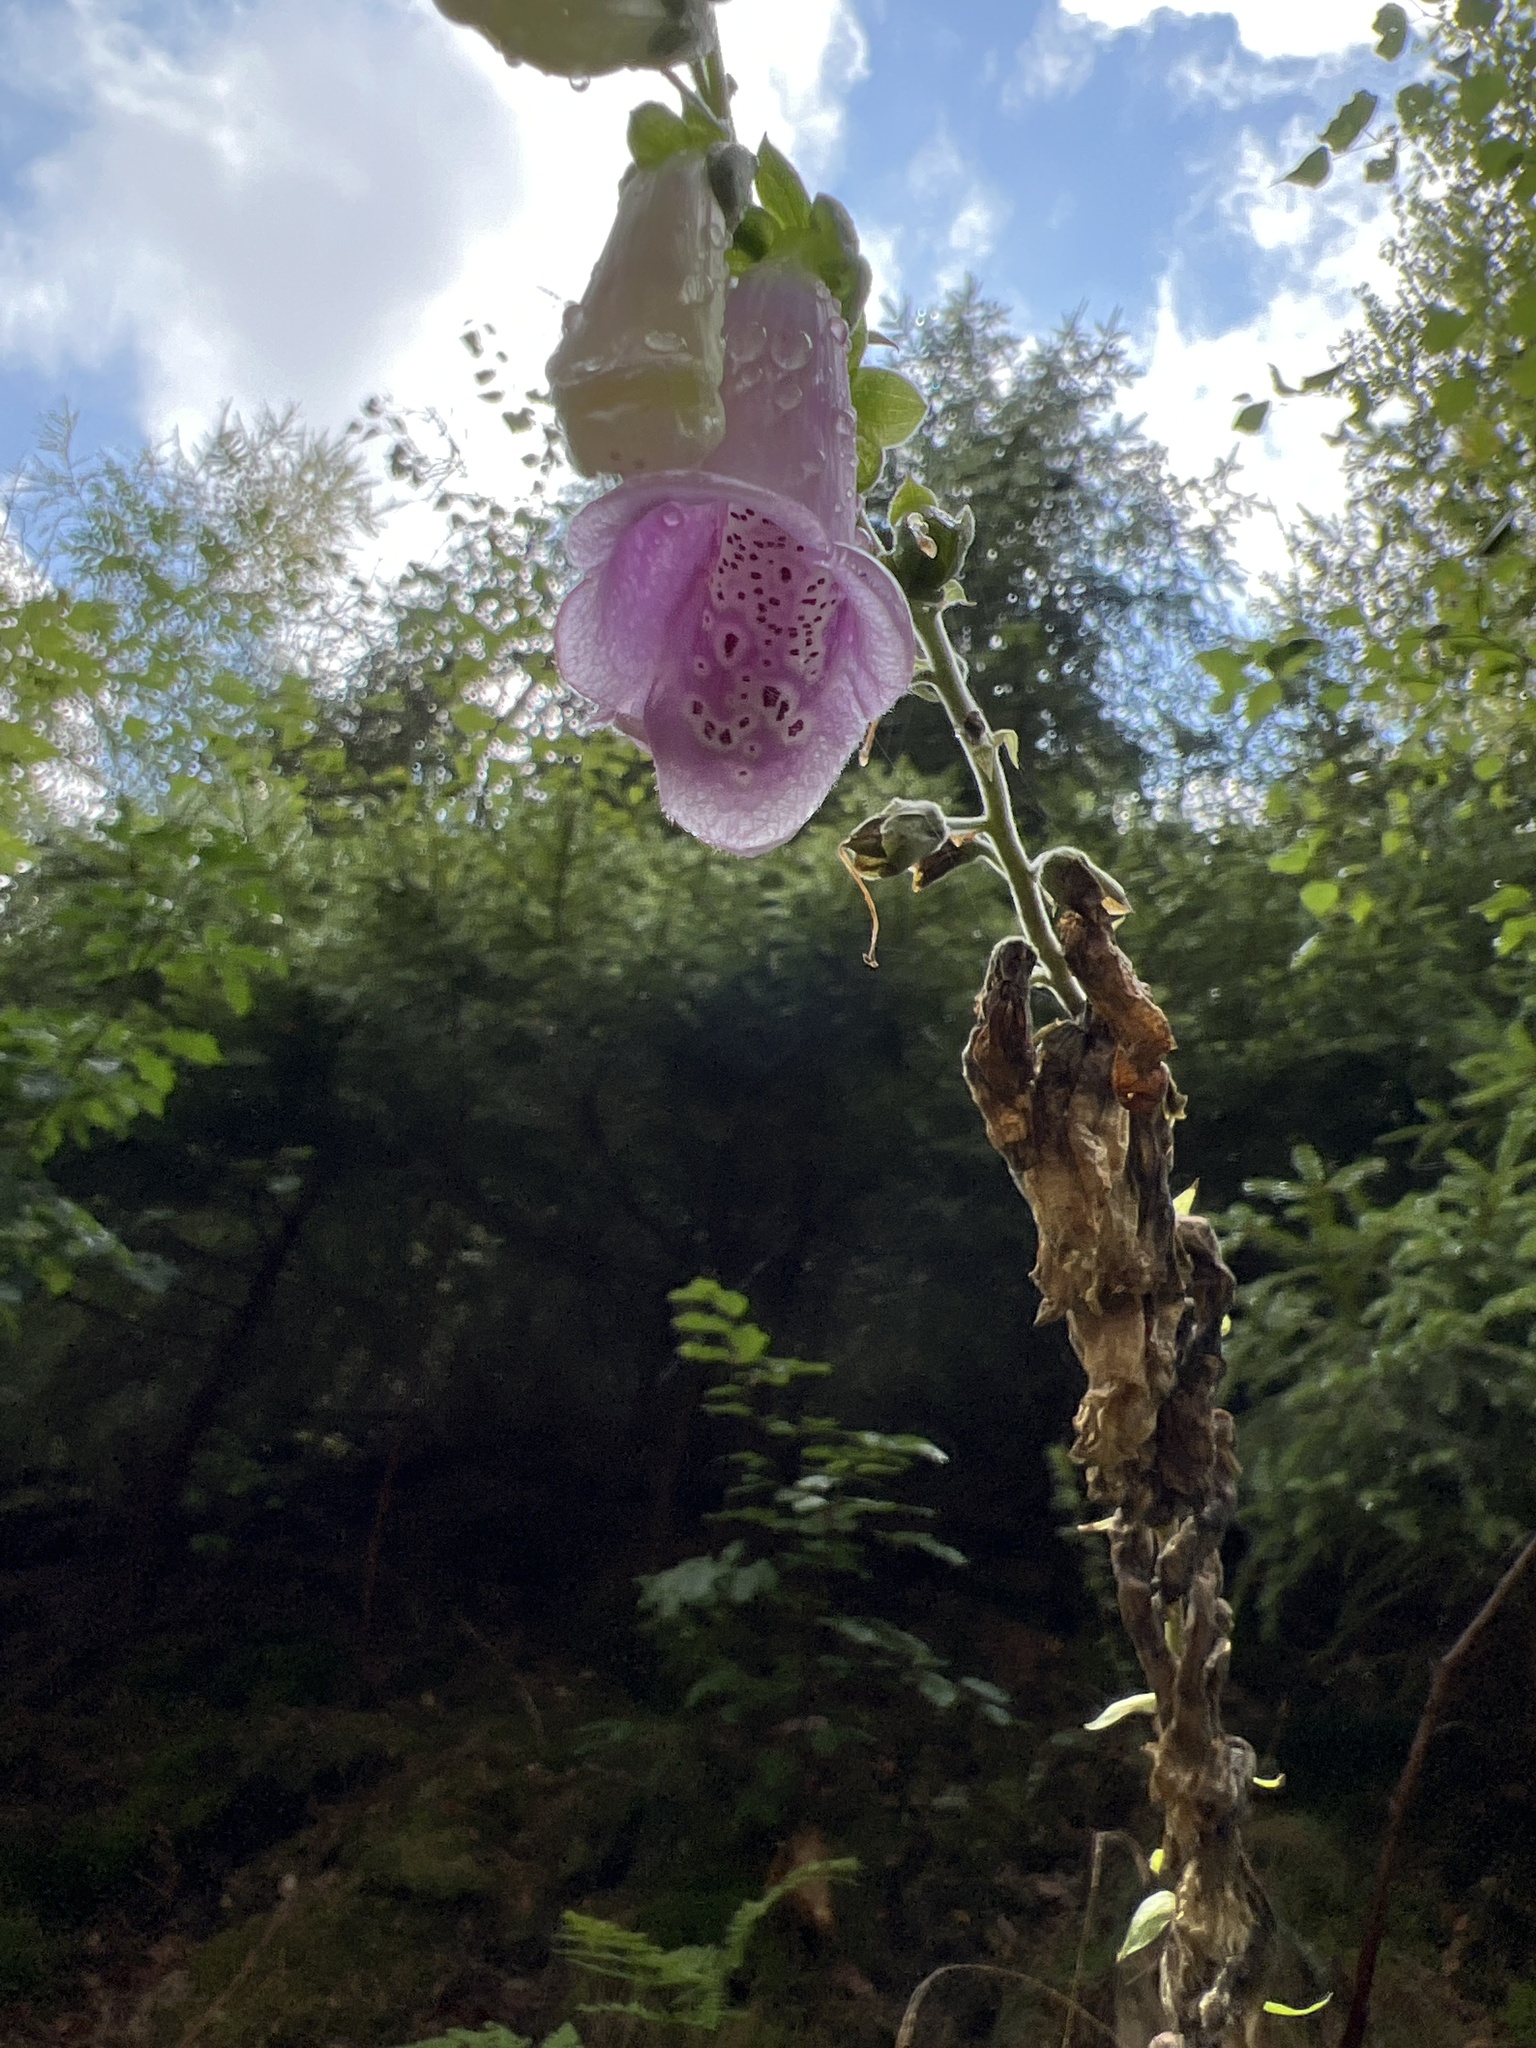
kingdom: Plantae
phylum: Tracheophyta
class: Magnoliopsida
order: Lamiales
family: Plantaginaceae
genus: Digitalis
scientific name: Digitalis purpurea
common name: Foxglove
